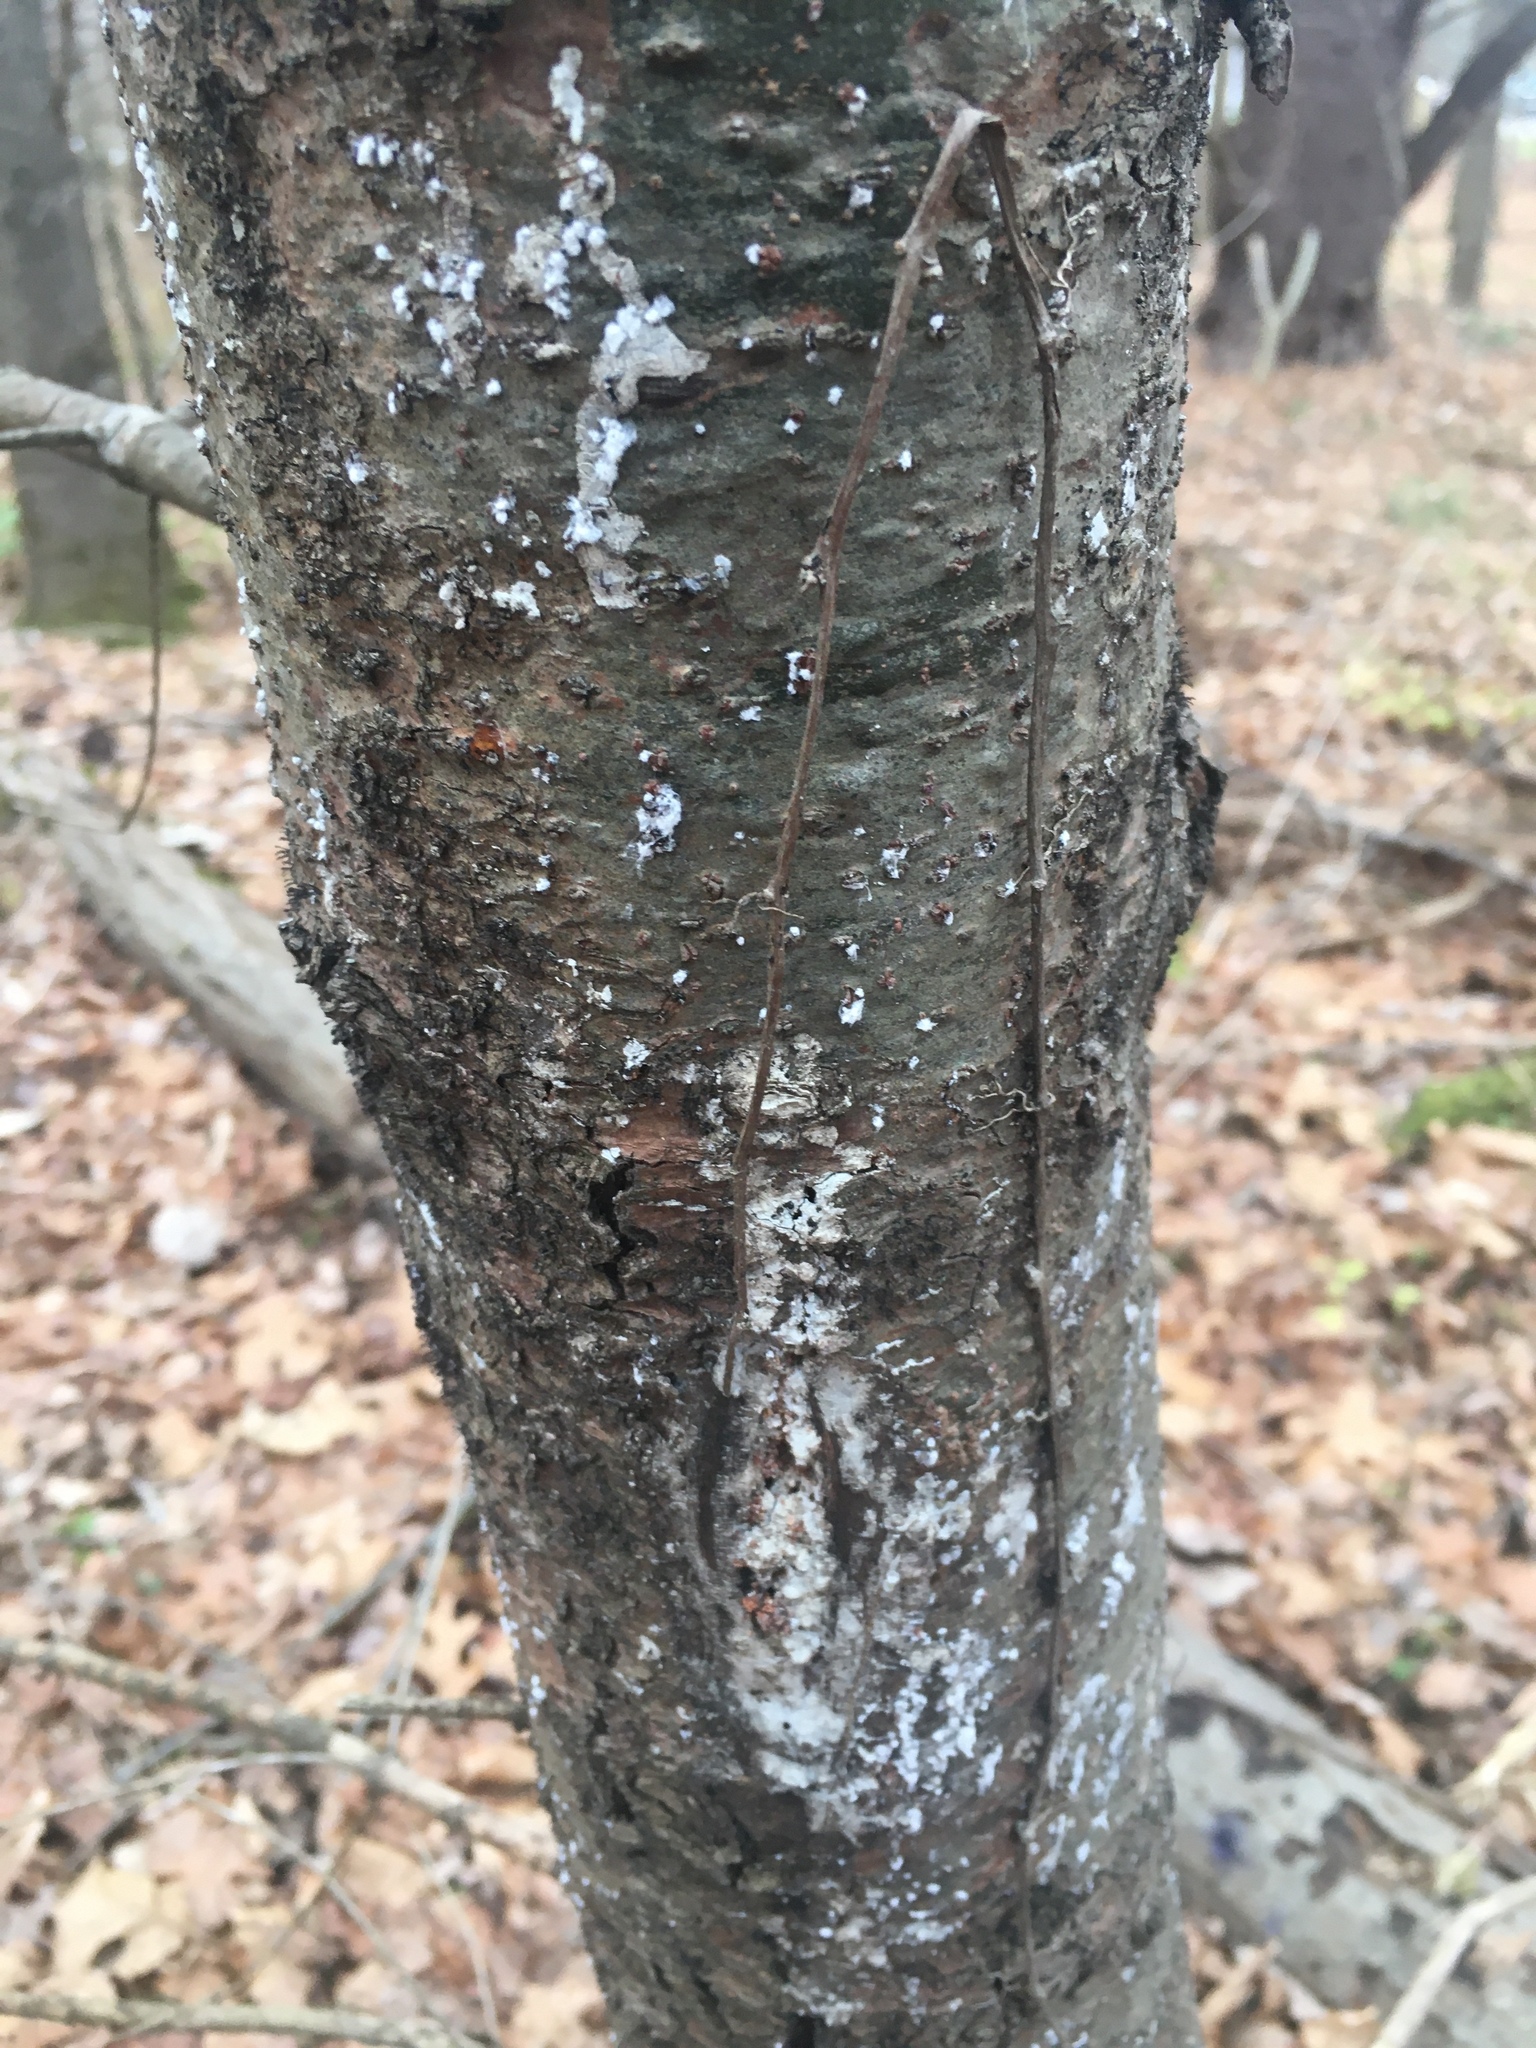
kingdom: Plantae
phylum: Tracheophyta
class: Pinopsida
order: Pinales
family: Pinaceae
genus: Pinus
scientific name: Pinus strobus
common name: Weymouth pine
